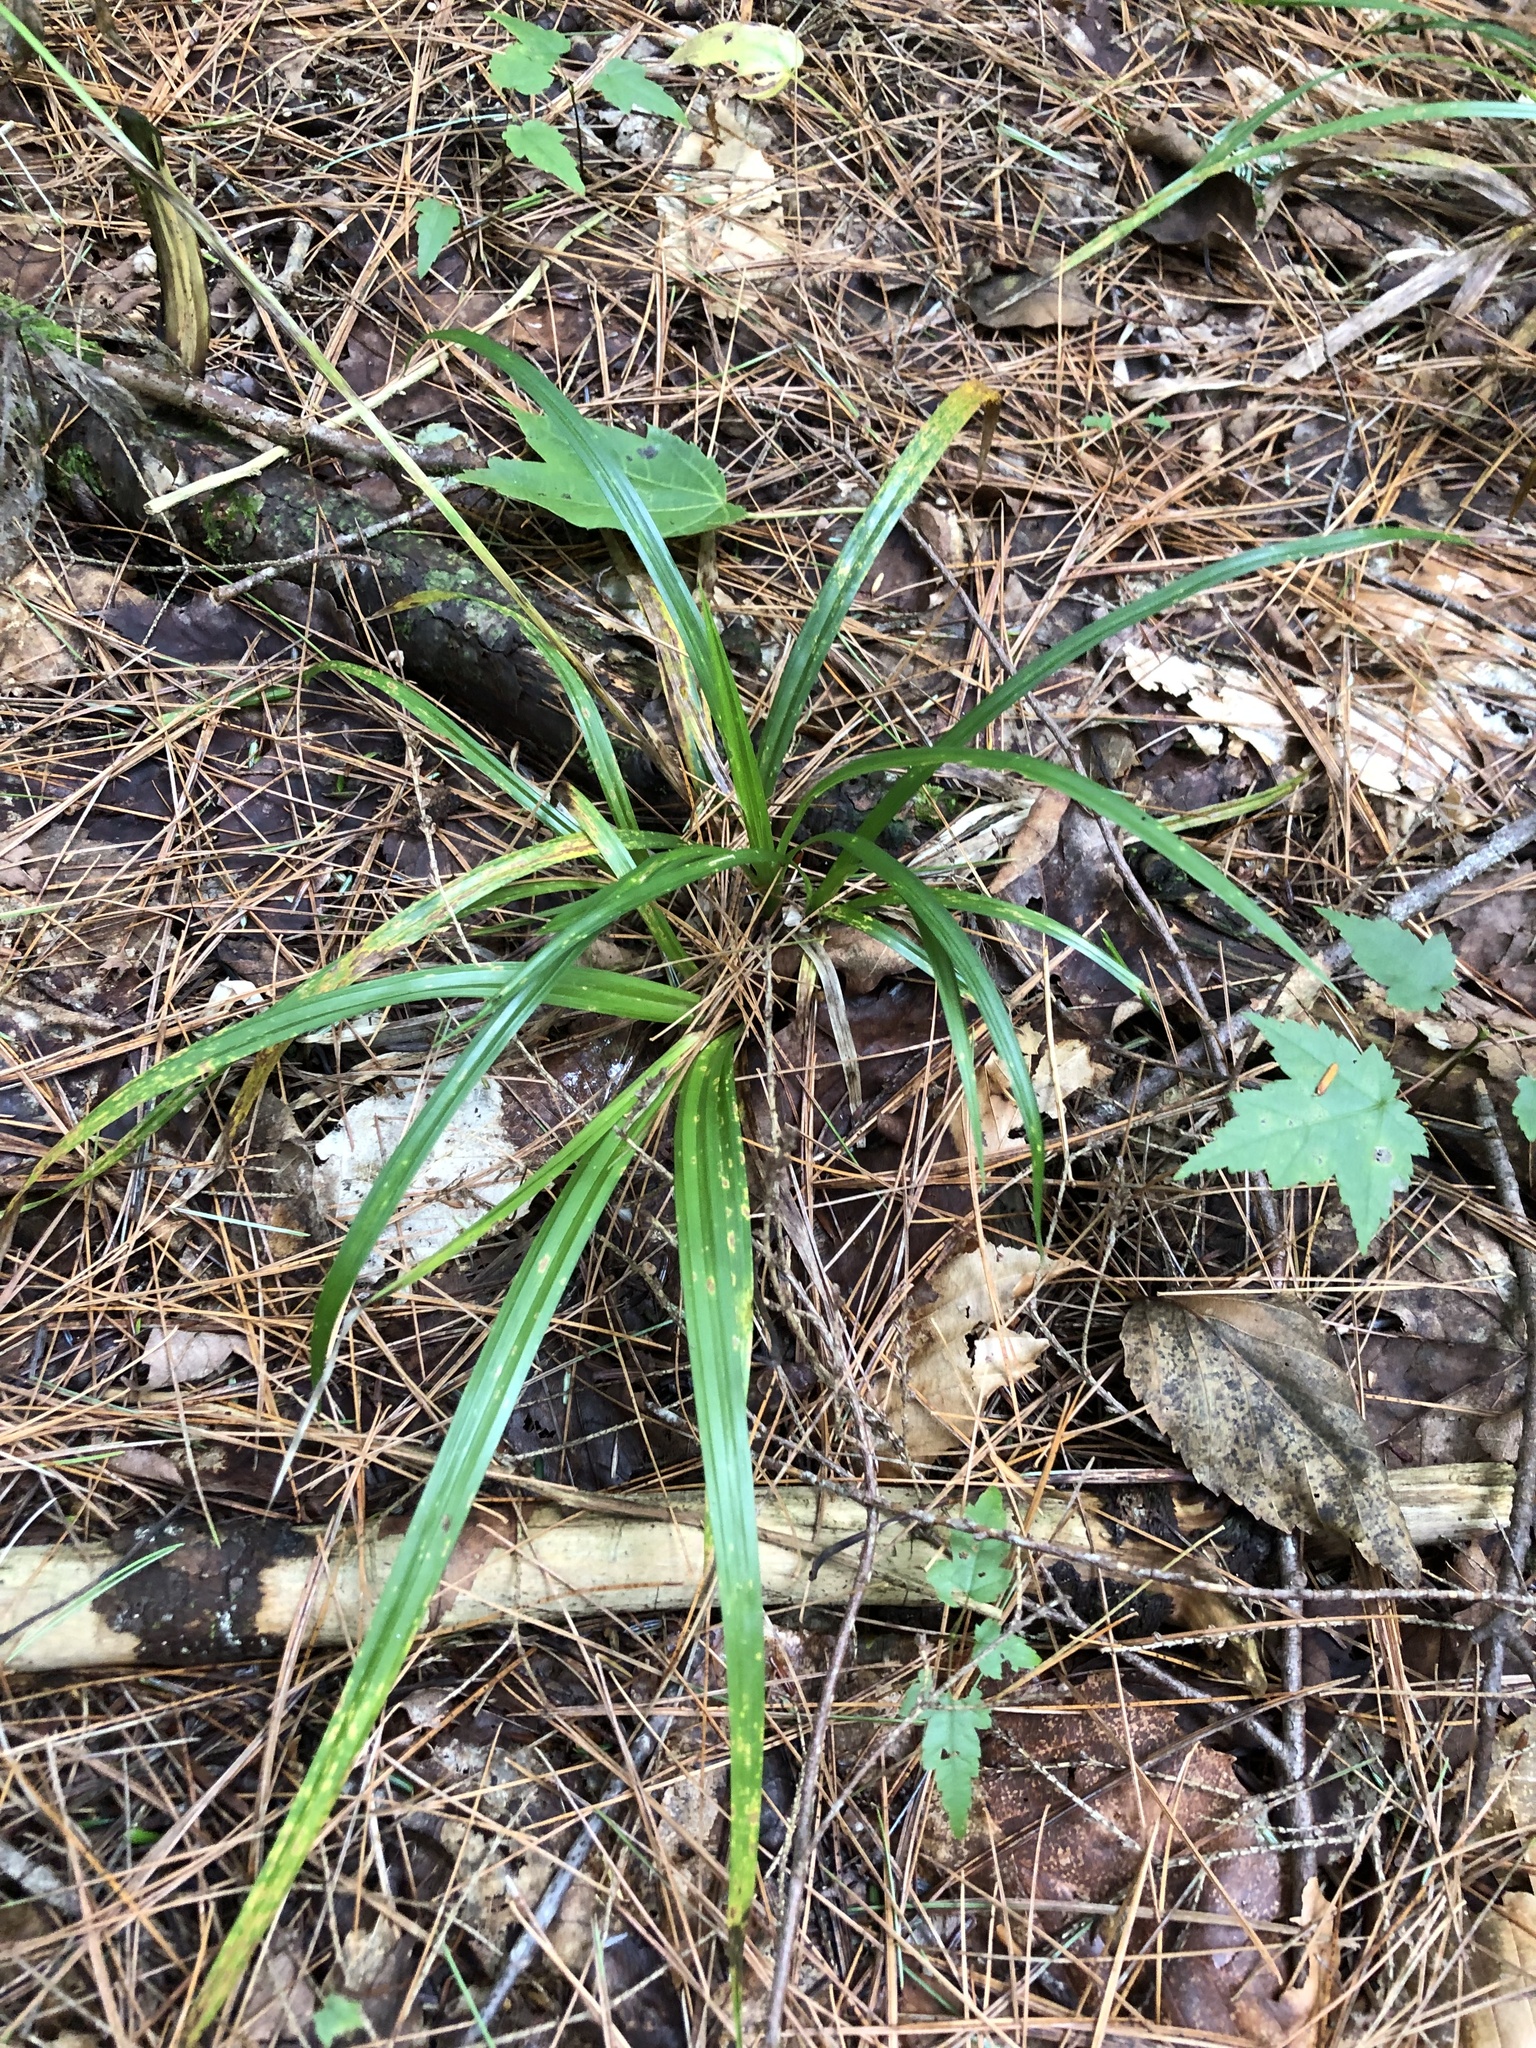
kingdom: Plantae
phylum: Tracheophyta
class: Liliopsida
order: Poales
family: Cyperaceae
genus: Carex
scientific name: Carex
